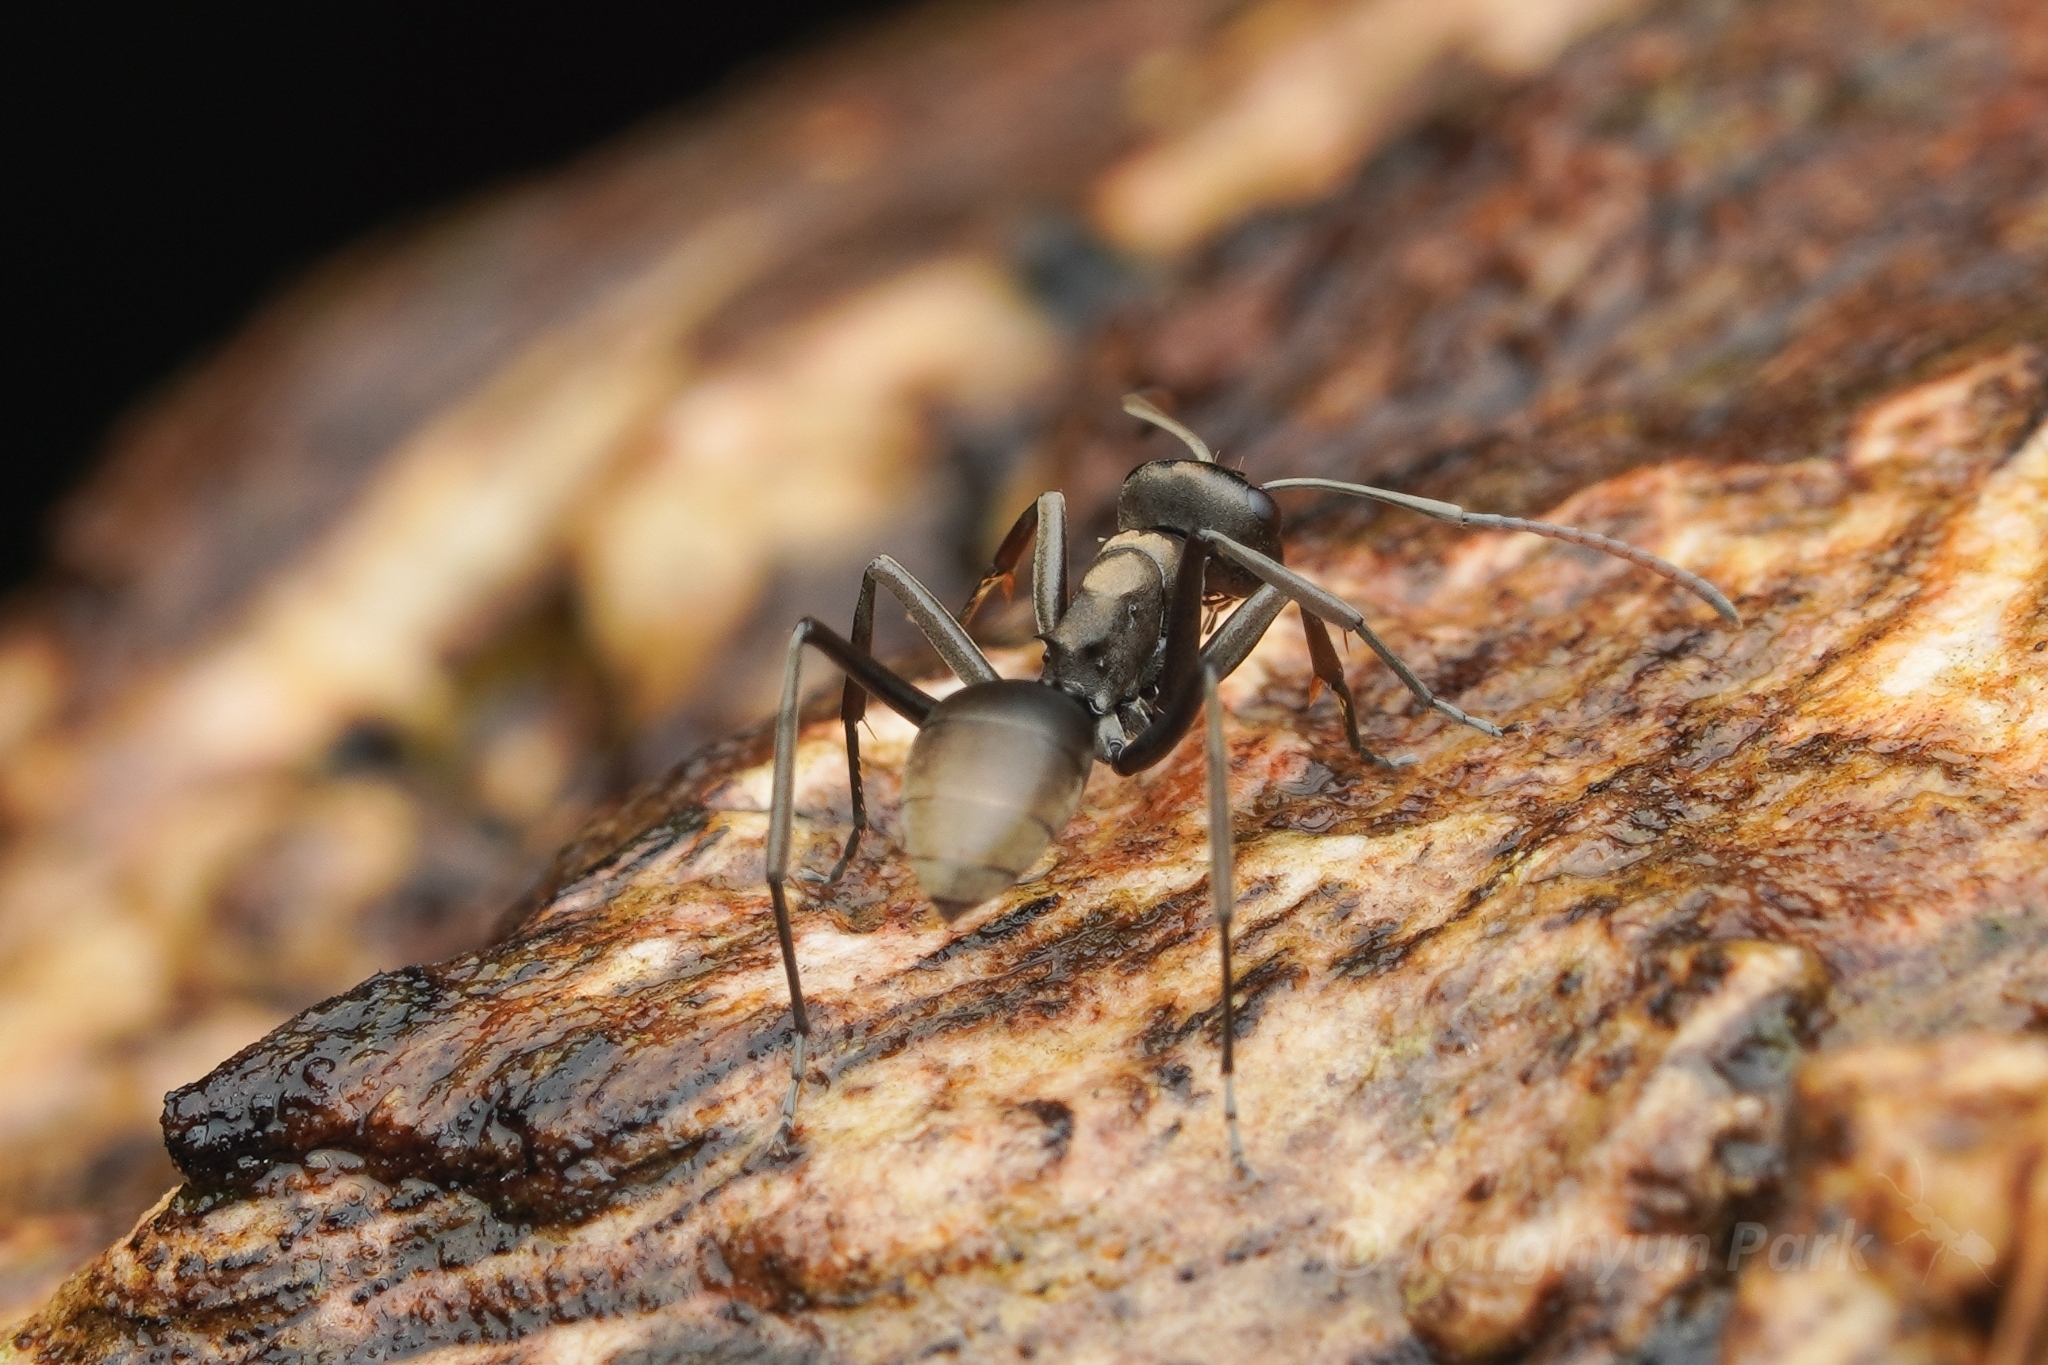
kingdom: Animalia
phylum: Arthropoda
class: Insecta
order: Hymenoptera
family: Formicidae
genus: Polyrhachis
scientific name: Polyrhachis
